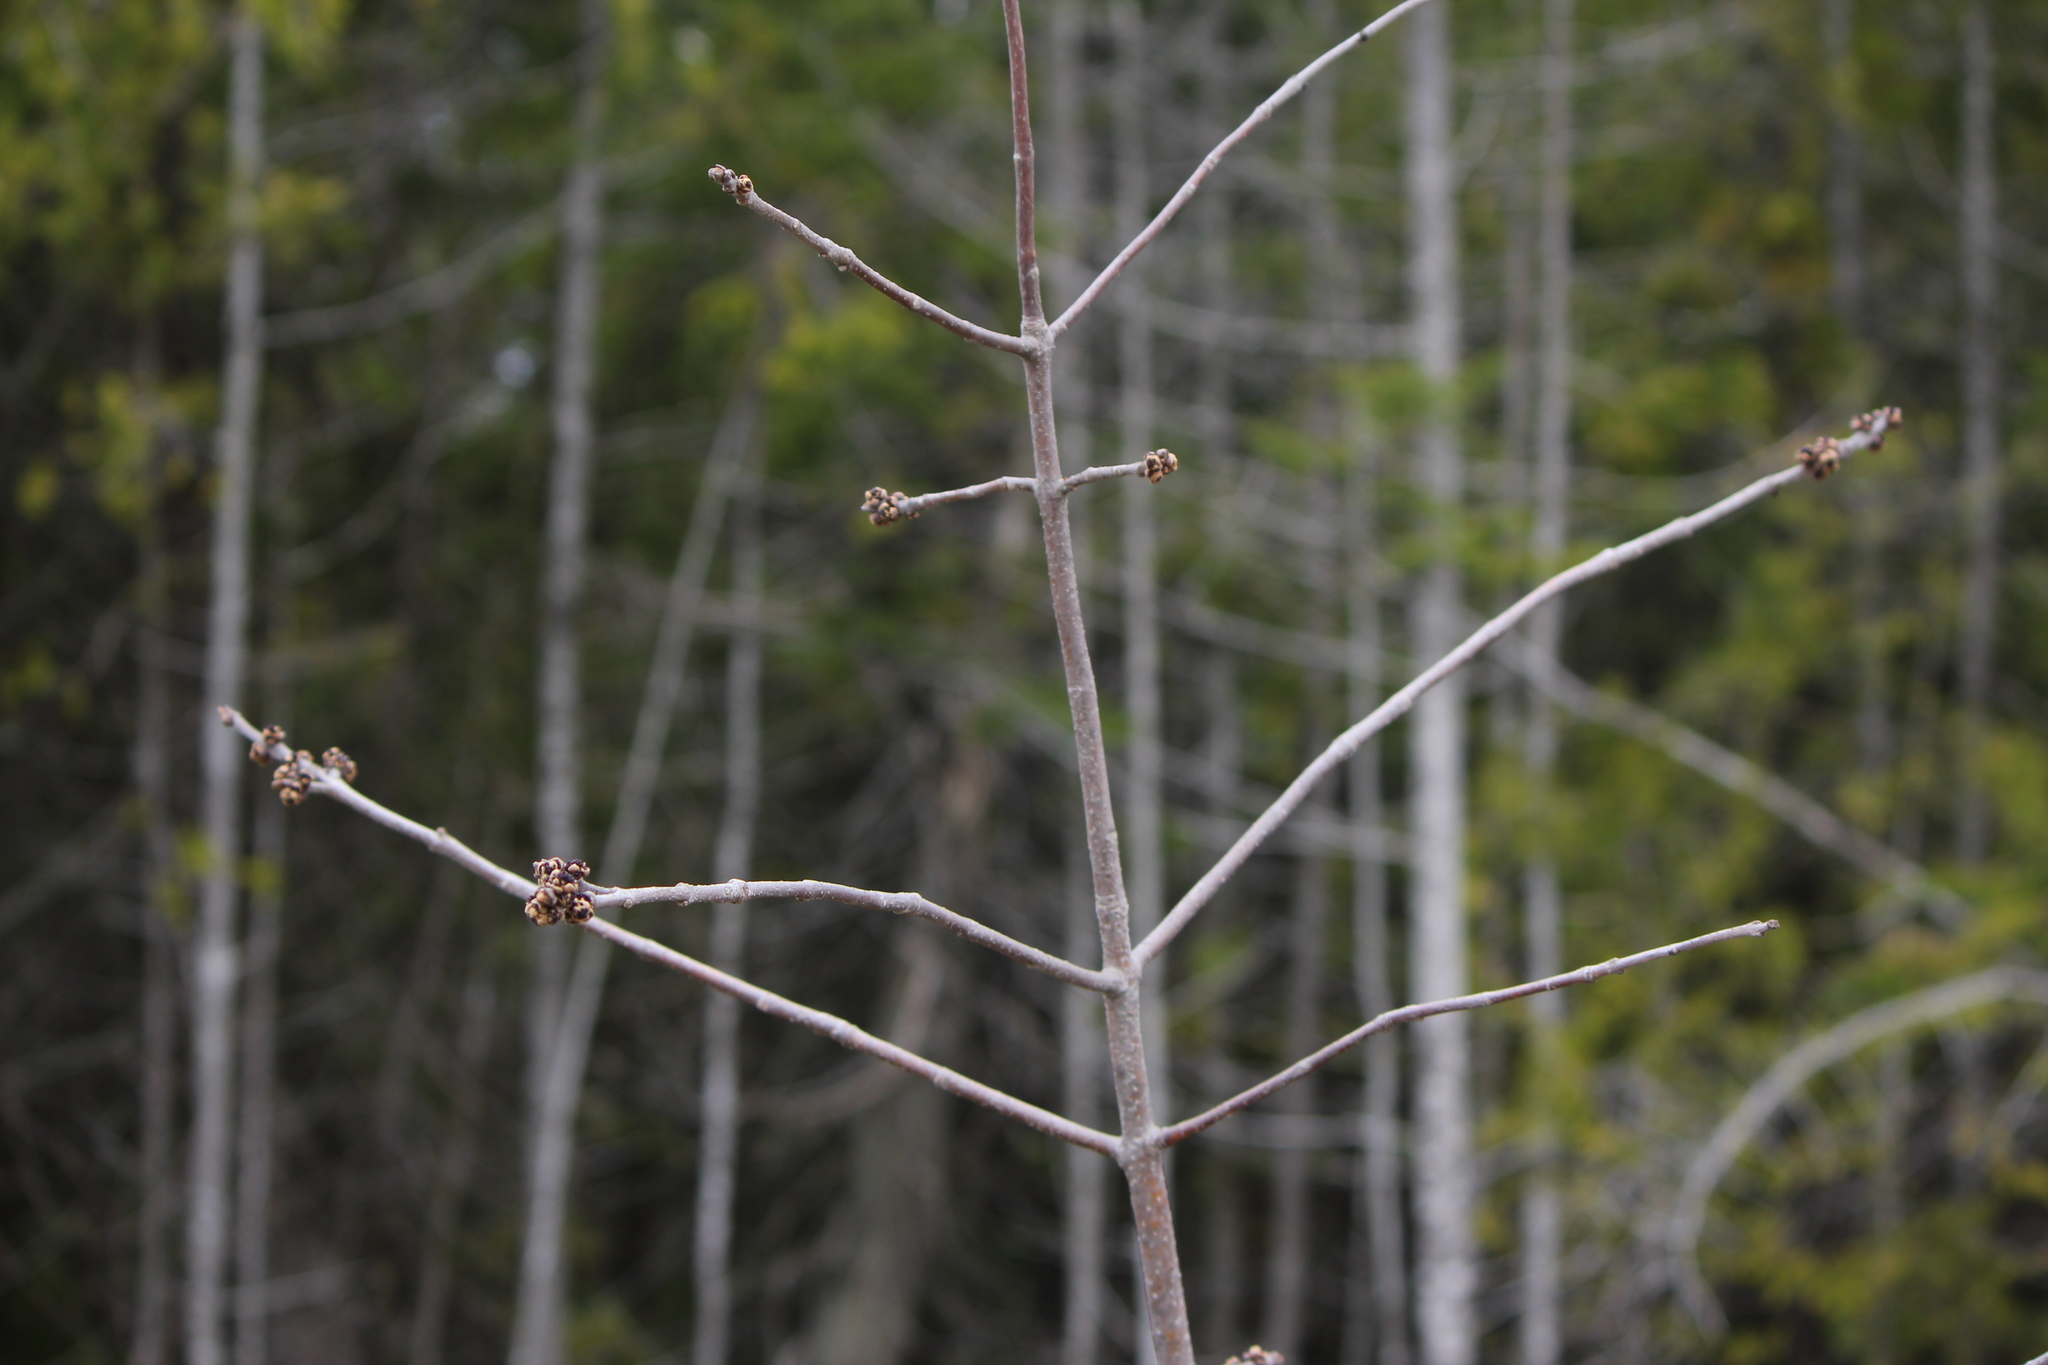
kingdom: Plantae
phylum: Tracheophyta
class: Magnoliopsida
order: Lamiales
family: Oleaceae
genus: Fraxinus
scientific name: Fraxinus pennsylvanica
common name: Green ash
